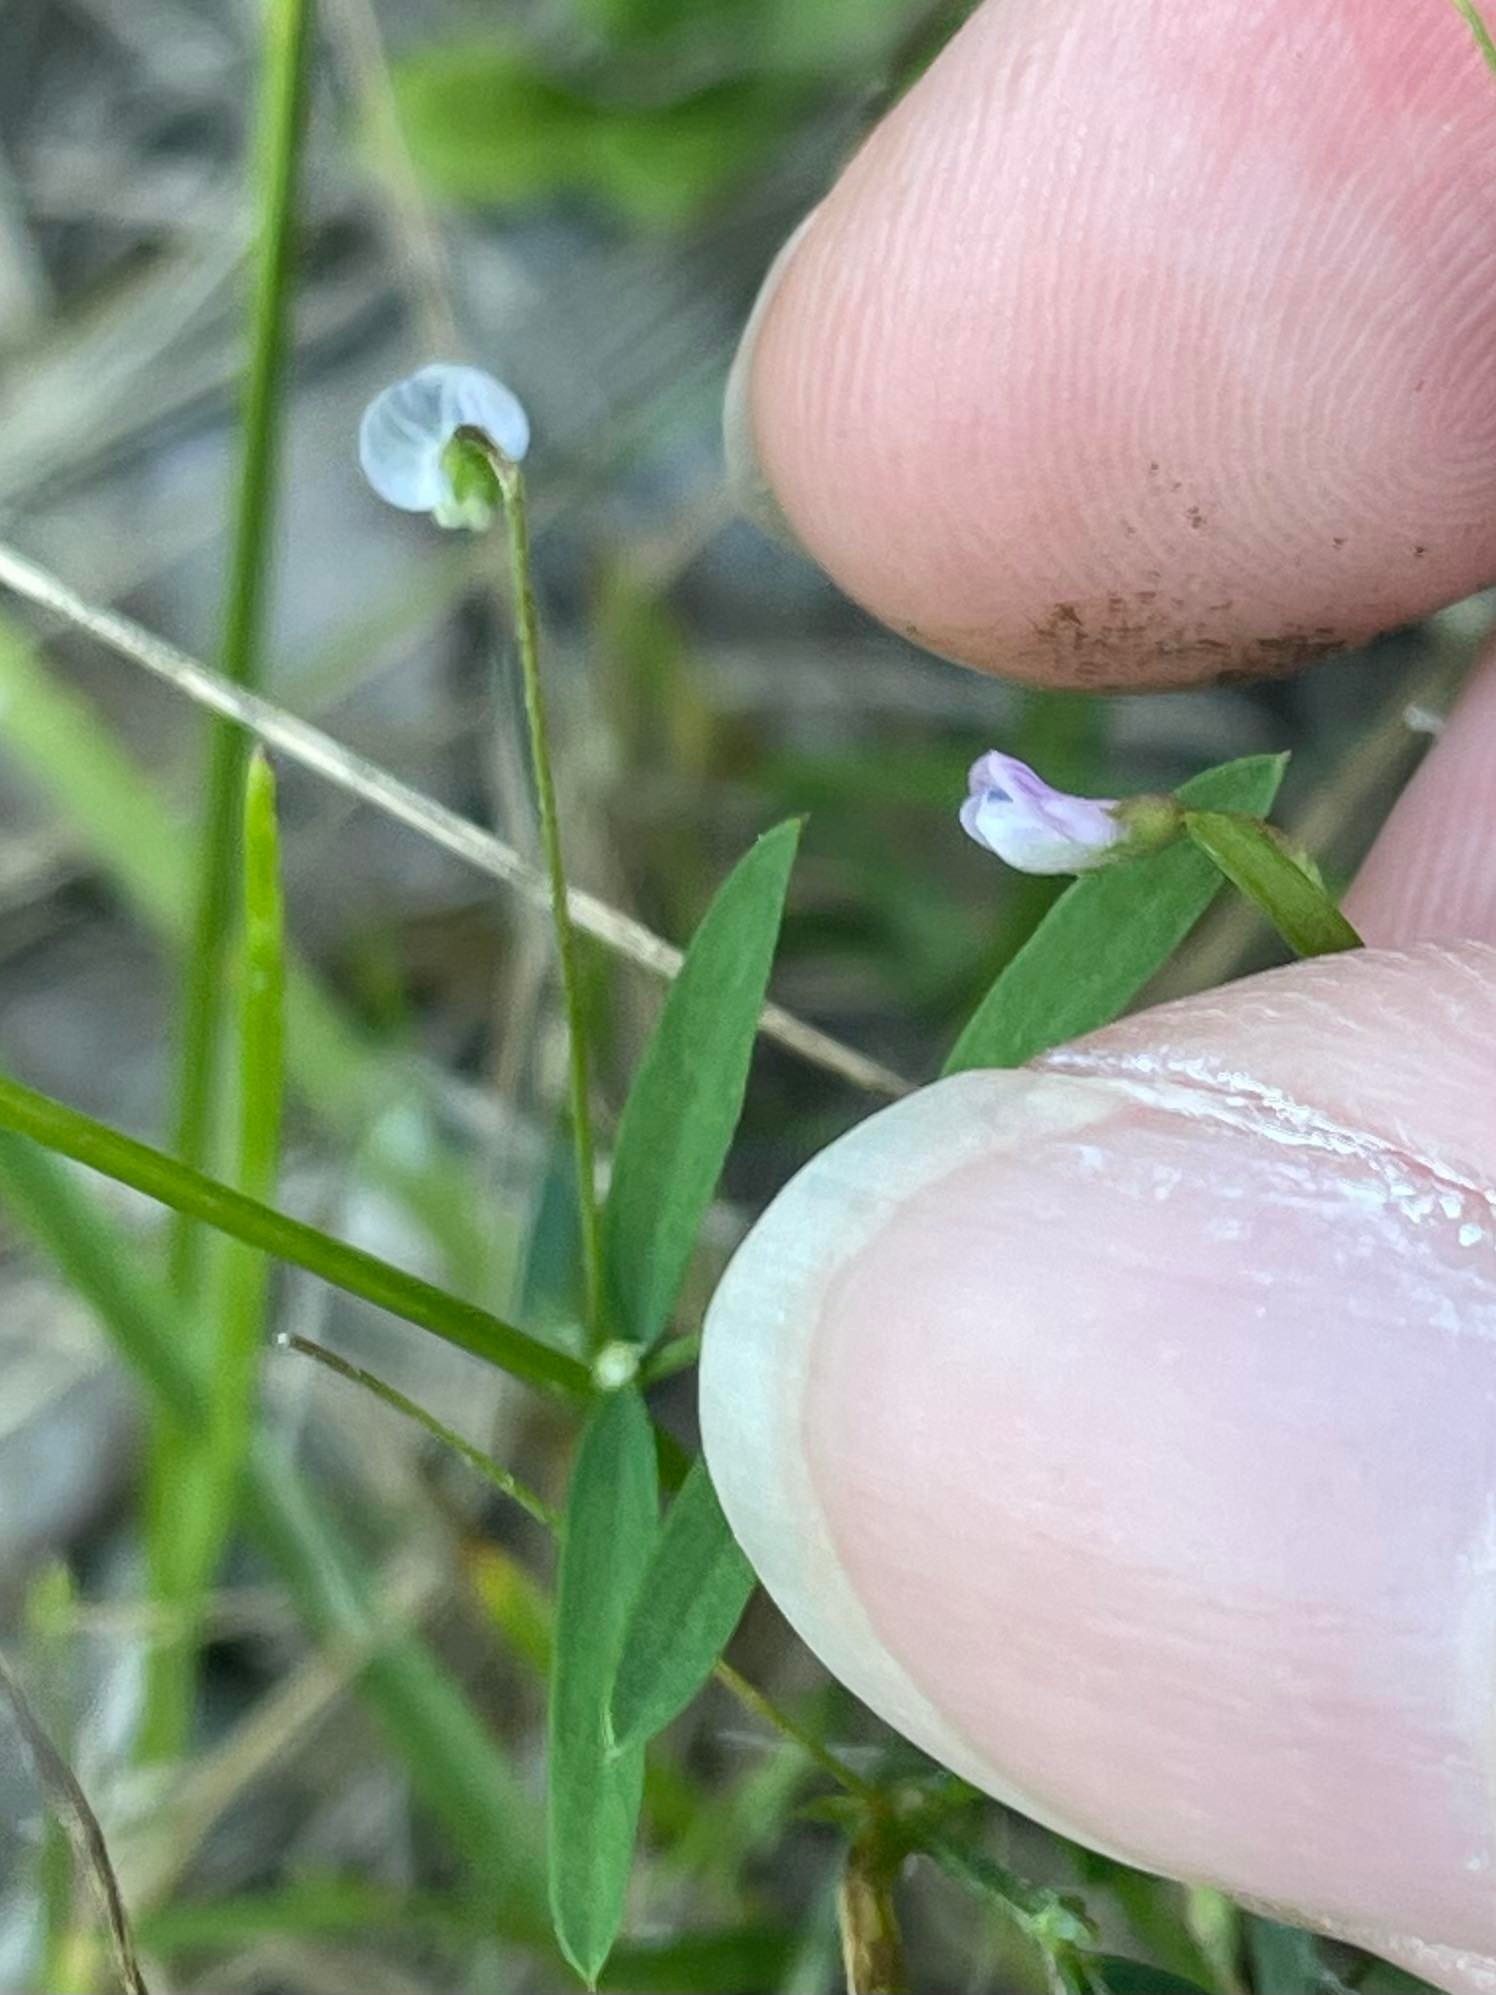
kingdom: Plantae
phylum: Tracheophyta
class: Magnoliopsida
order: Fabales
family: Fabaceae
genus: Vicia
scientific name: Vicia tetrasperma
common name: Smooth tare
